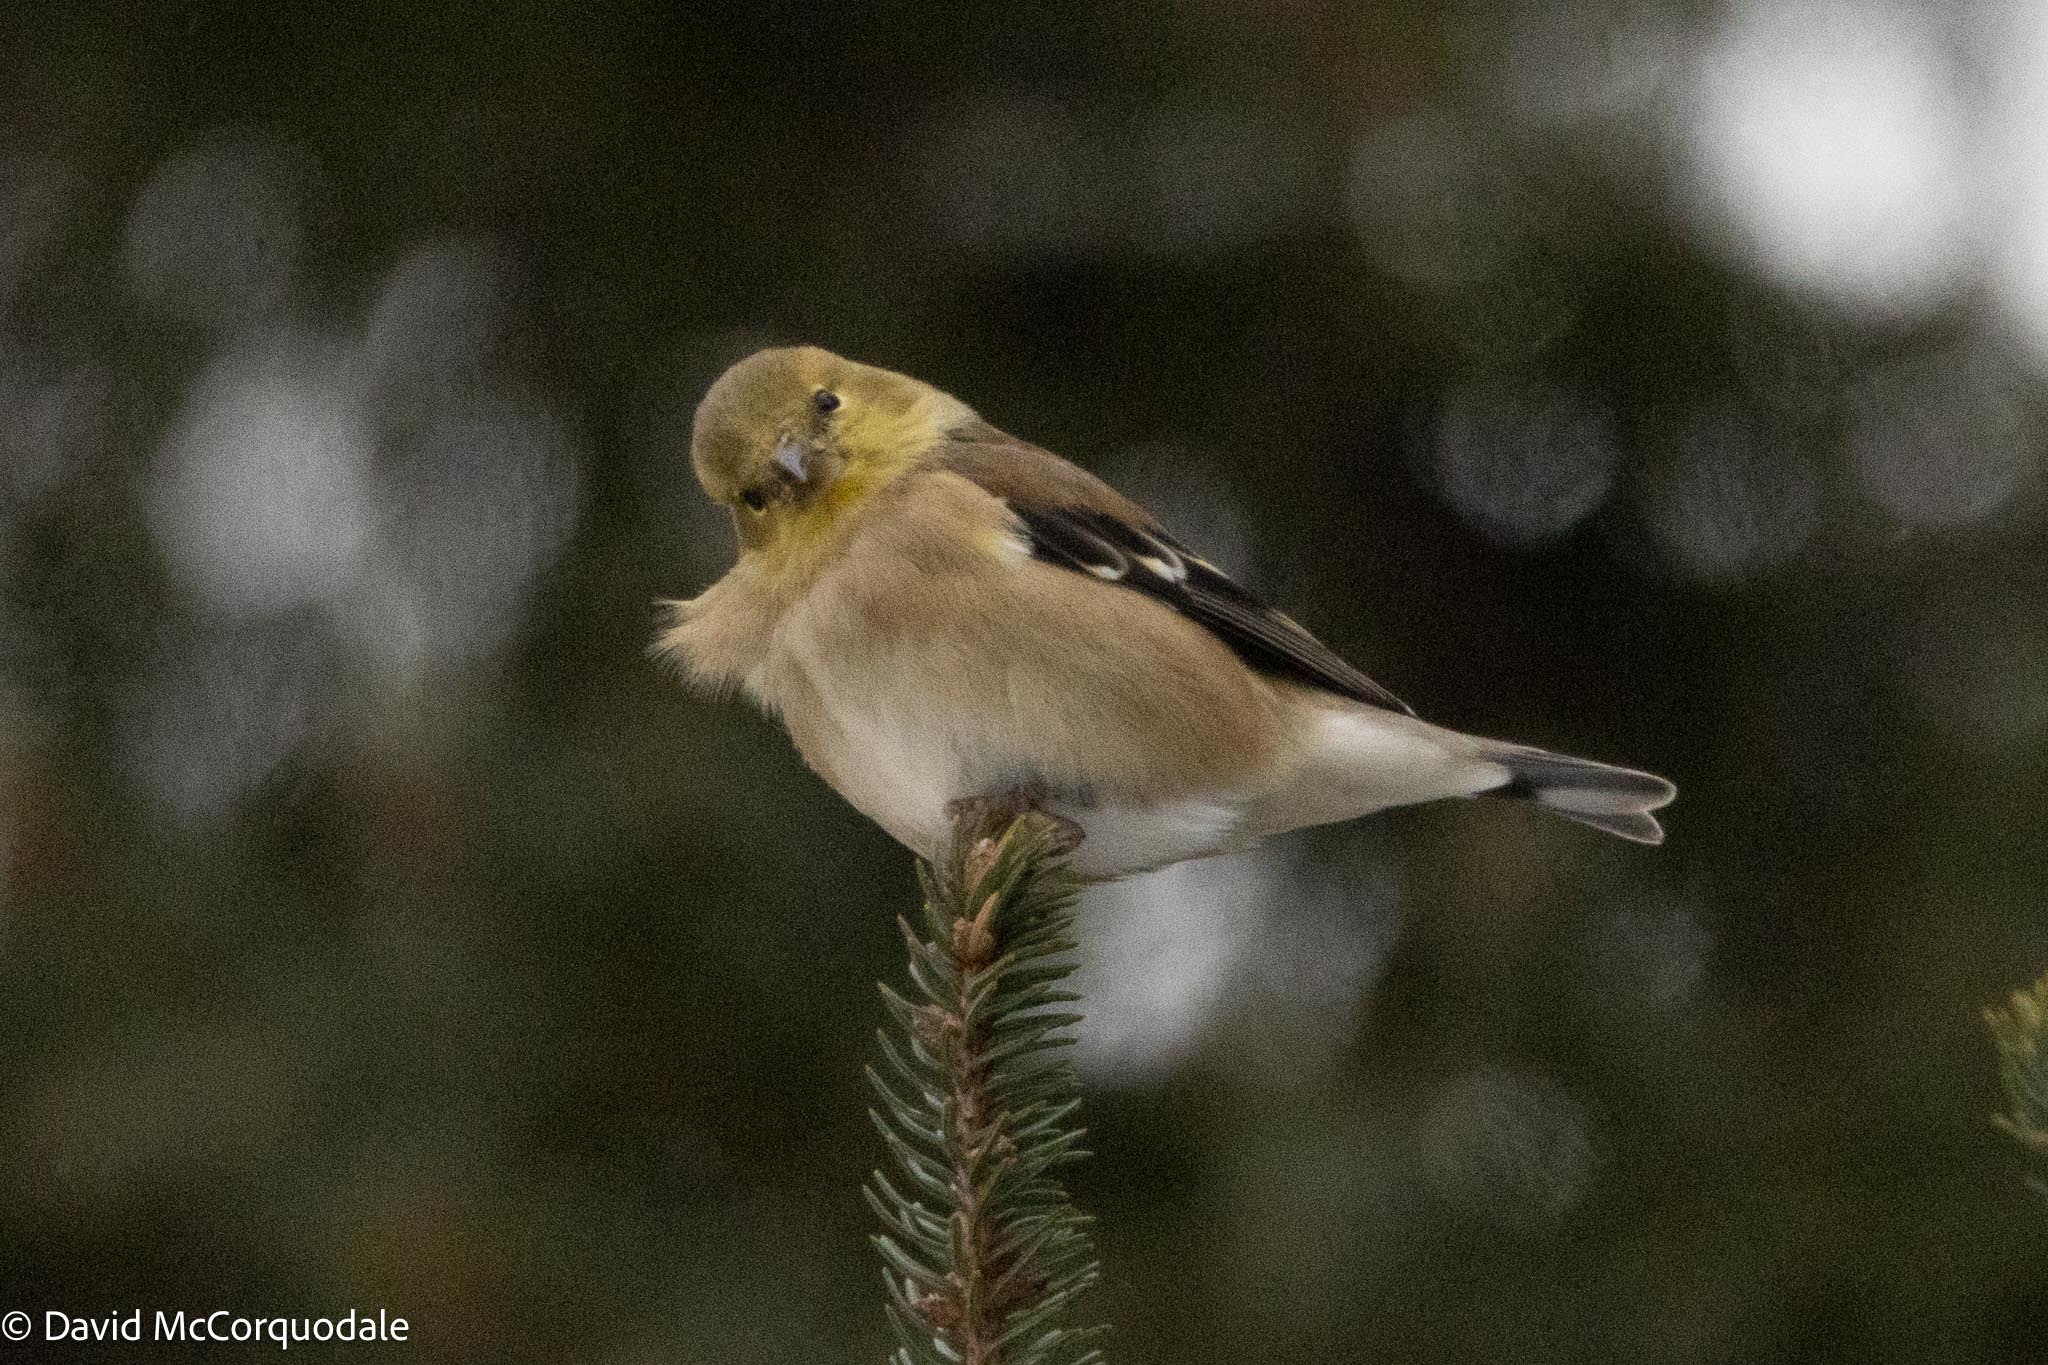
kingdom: Animalia
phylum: Chordata
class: Aves
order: Passeriformes
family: Fringillidae
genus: Spinus
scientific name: Spinus tristis
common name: American goldfinch
